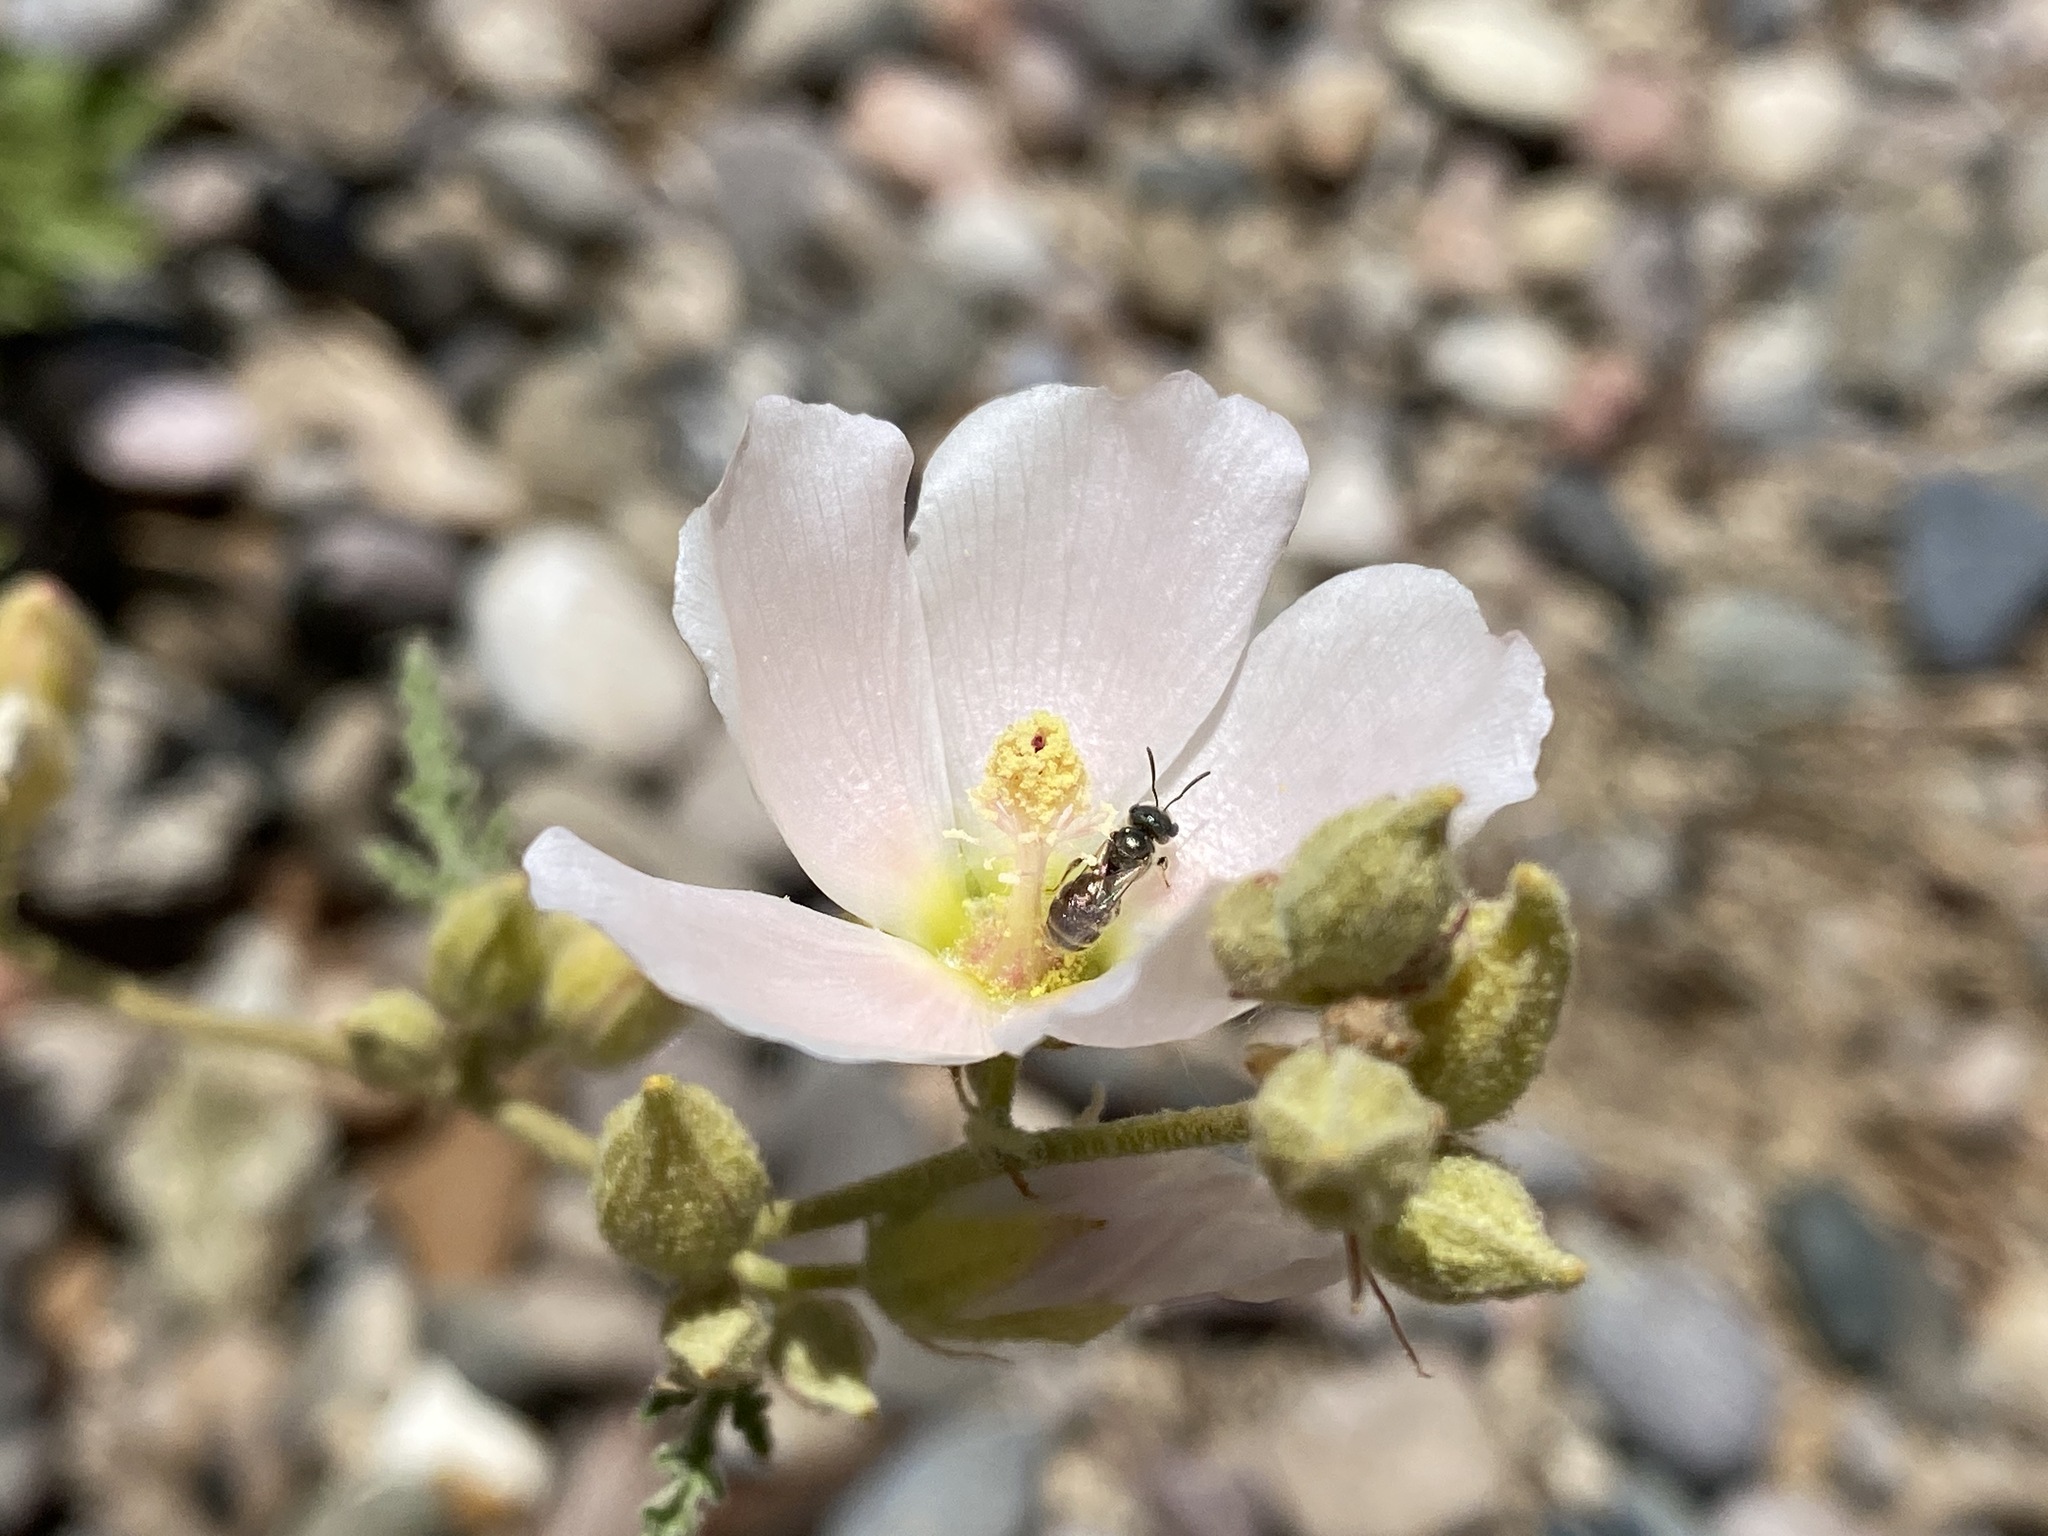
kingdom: Animalia
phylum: Arthropoda
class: Insecta
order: Hymenoptera
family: Halictidae
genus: Halictus
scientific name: Halictus tripartitus
